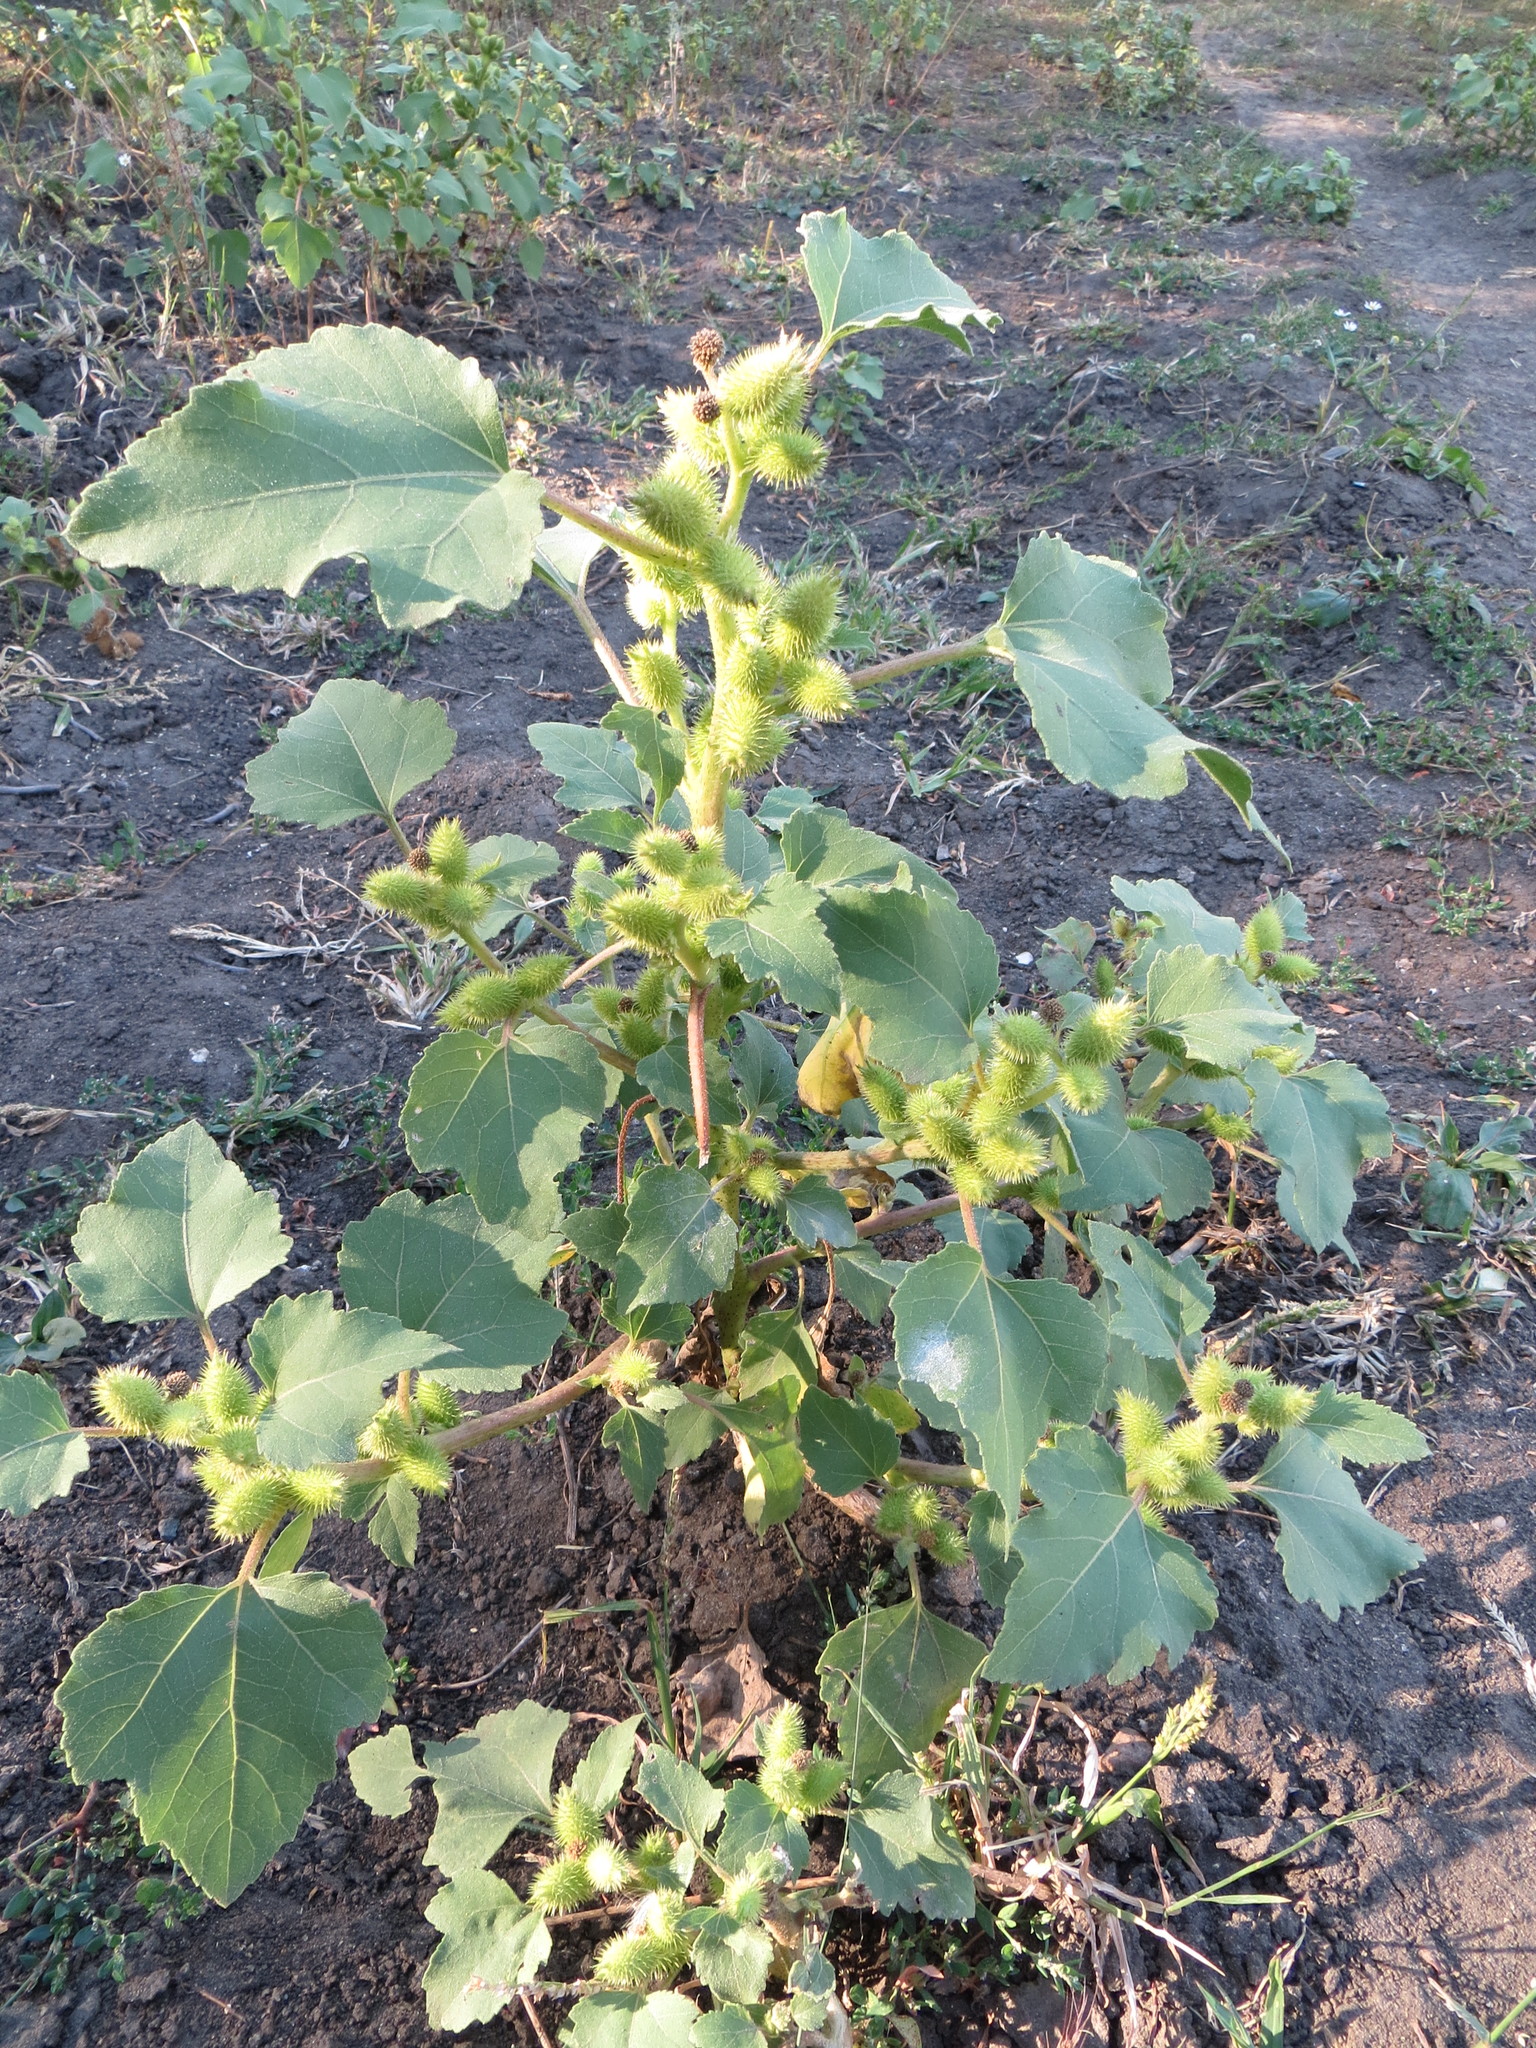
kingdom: Plantae
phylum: Tracheophyta
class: Magnoliopsida
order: Asterales
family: Asteraceae
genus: Xanthium
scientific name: Xanthium orientale
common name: Californian burr
